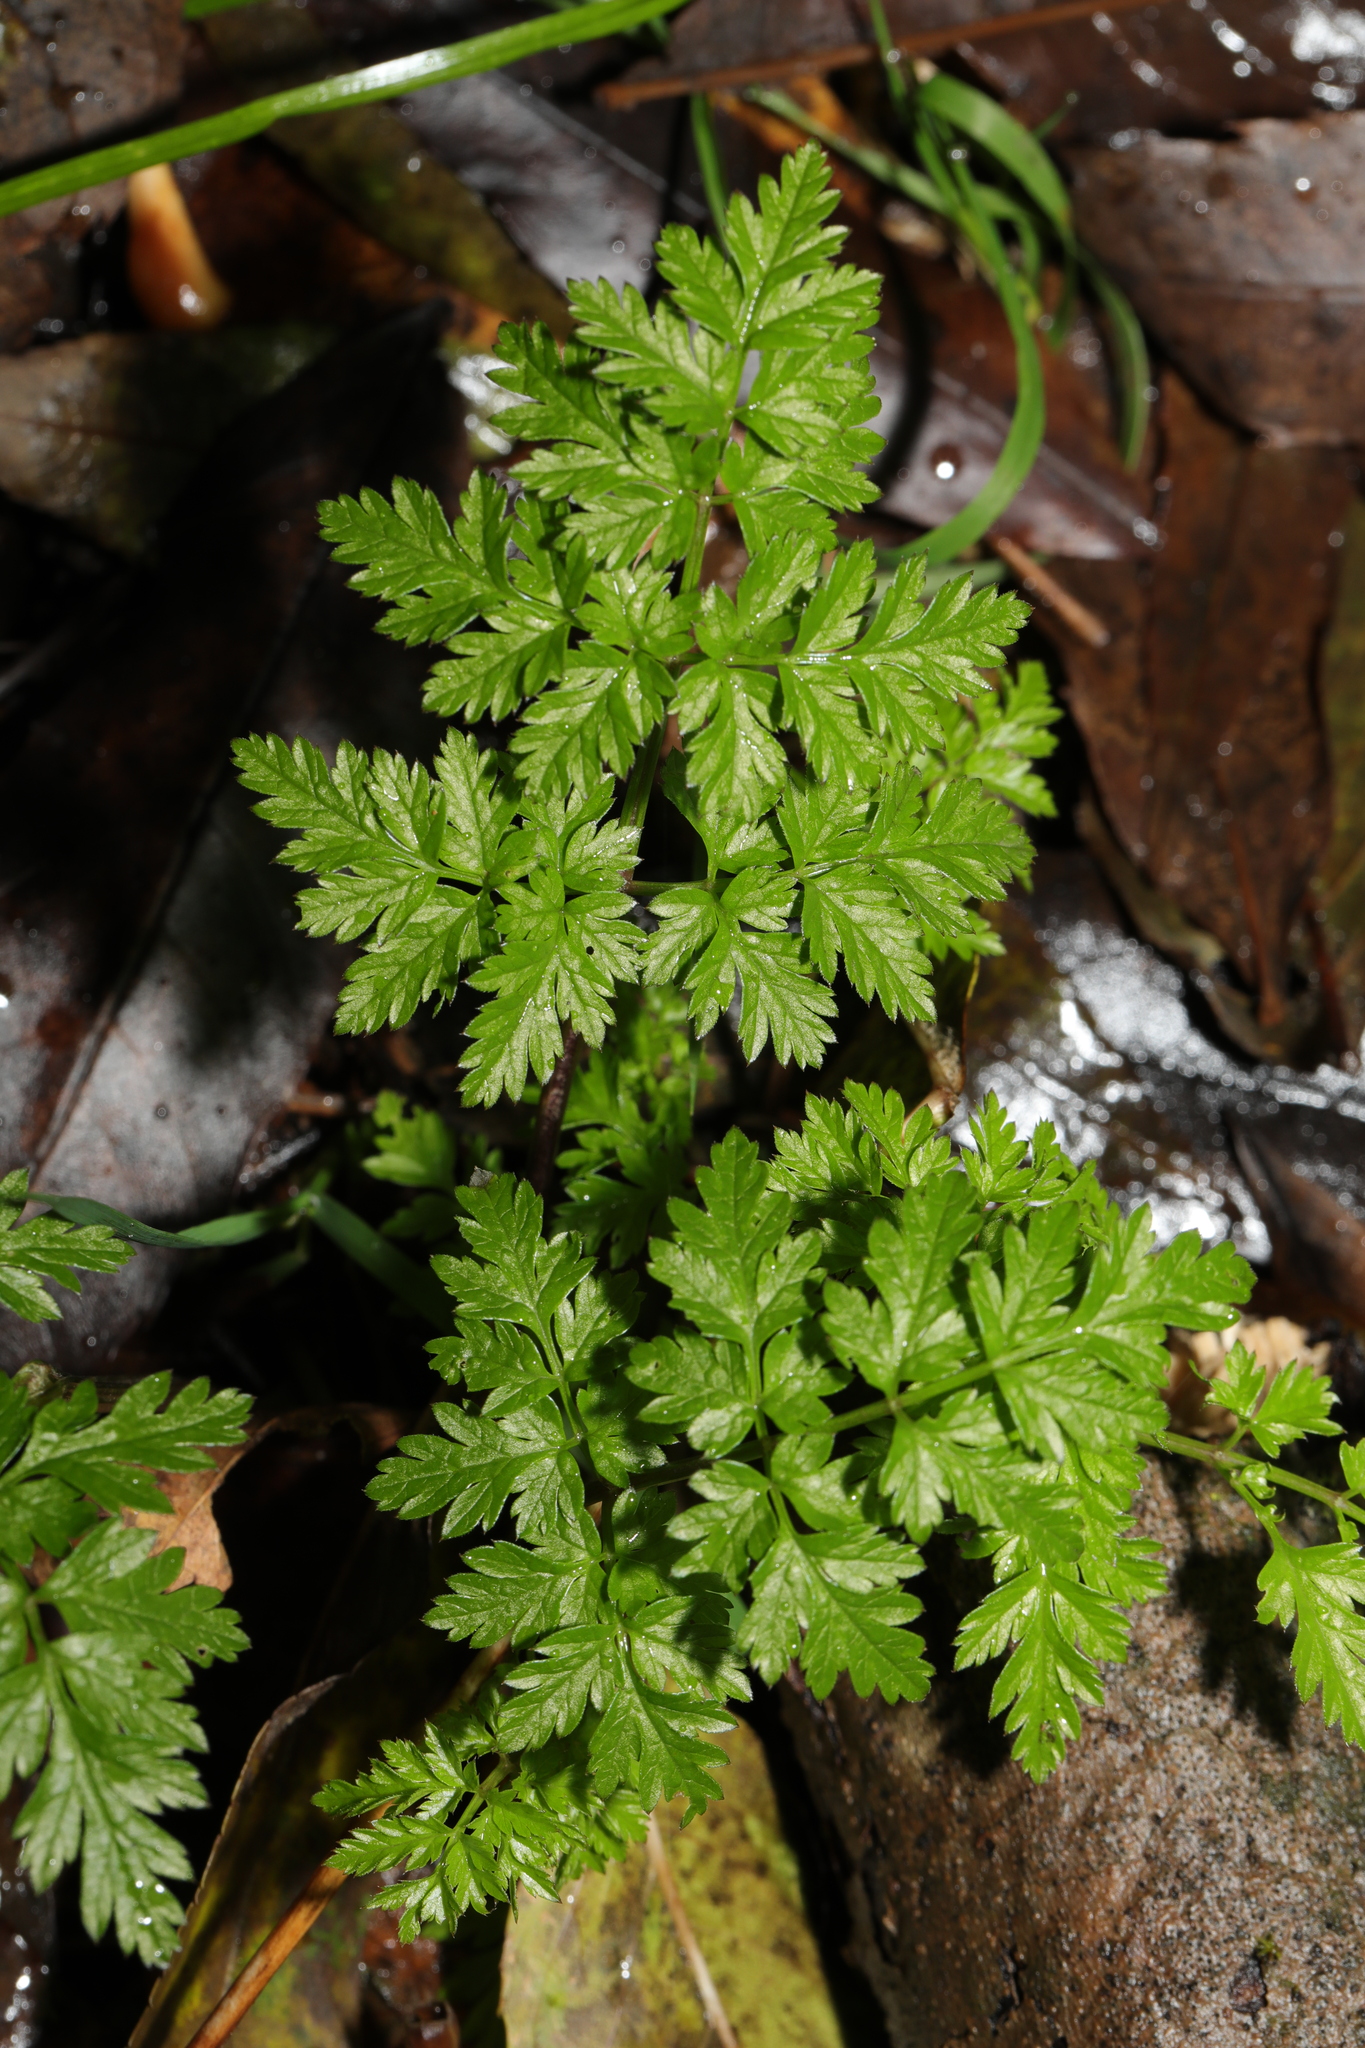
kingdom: Plantae
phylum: Tracheophyta
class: Magnoliopsida
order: Apiales
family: Apiaceae
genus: Anthriscus
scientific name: Anthriscus sylvestris
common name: Cow parsley
